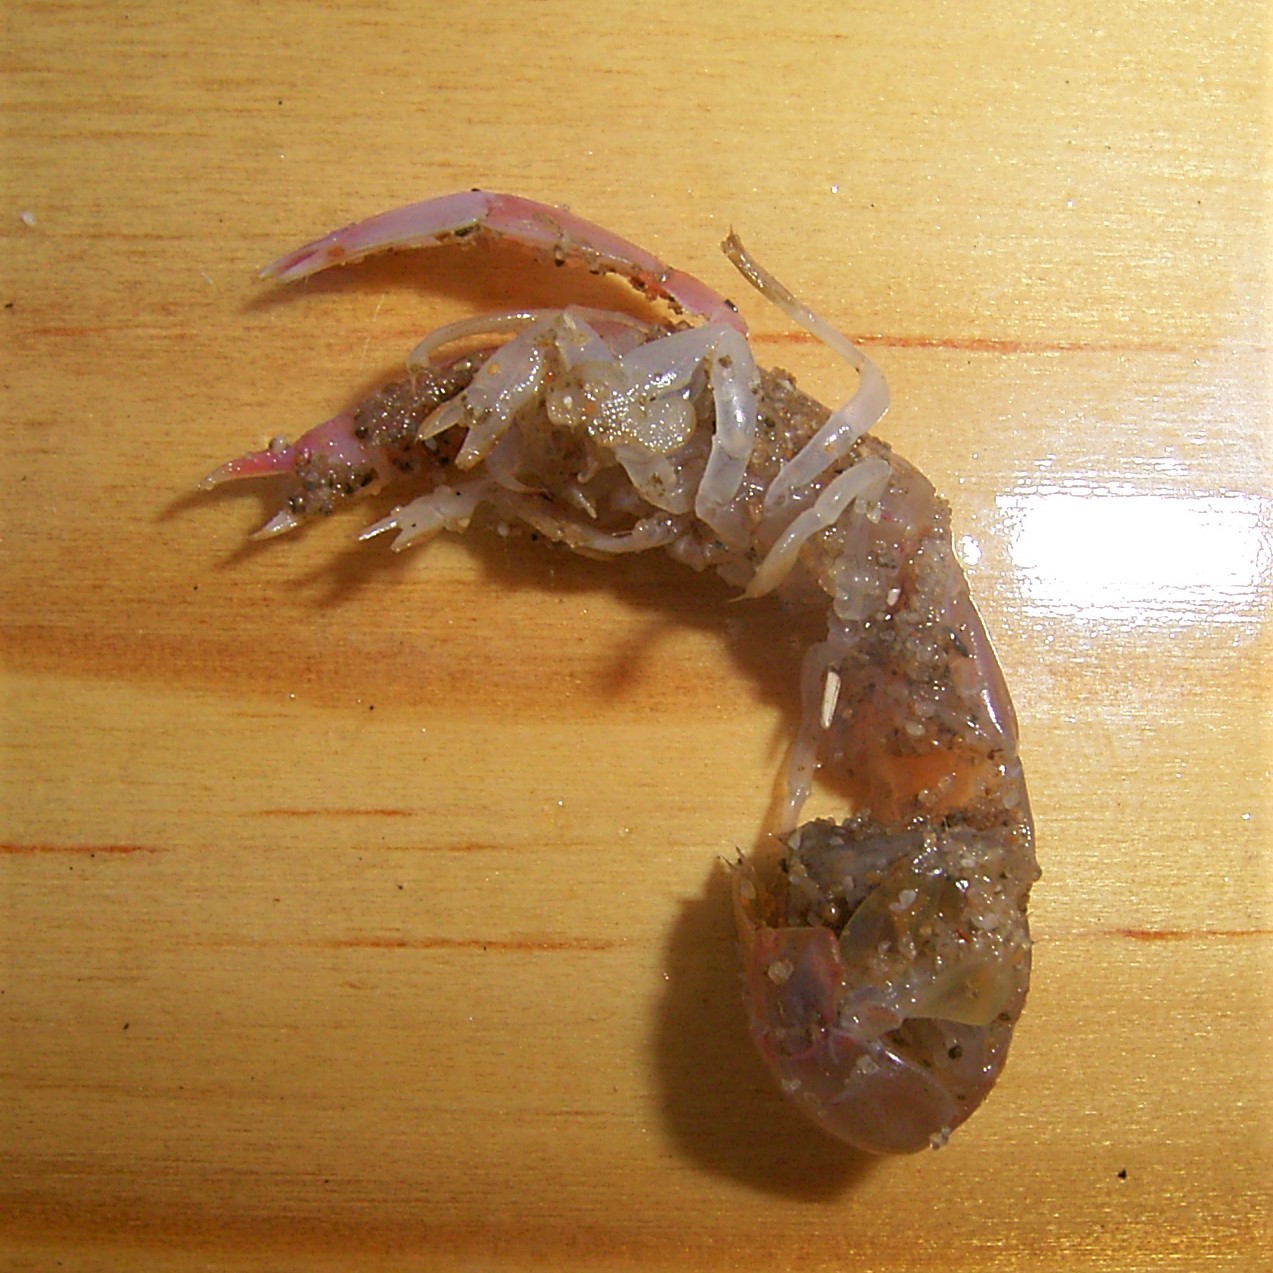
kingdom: Animalia
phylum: Arthropoda
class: Malacostraca
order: Decapoda
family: Callichiridae
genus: Kraussillichirus
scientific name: Kraussillichirus kraussi
